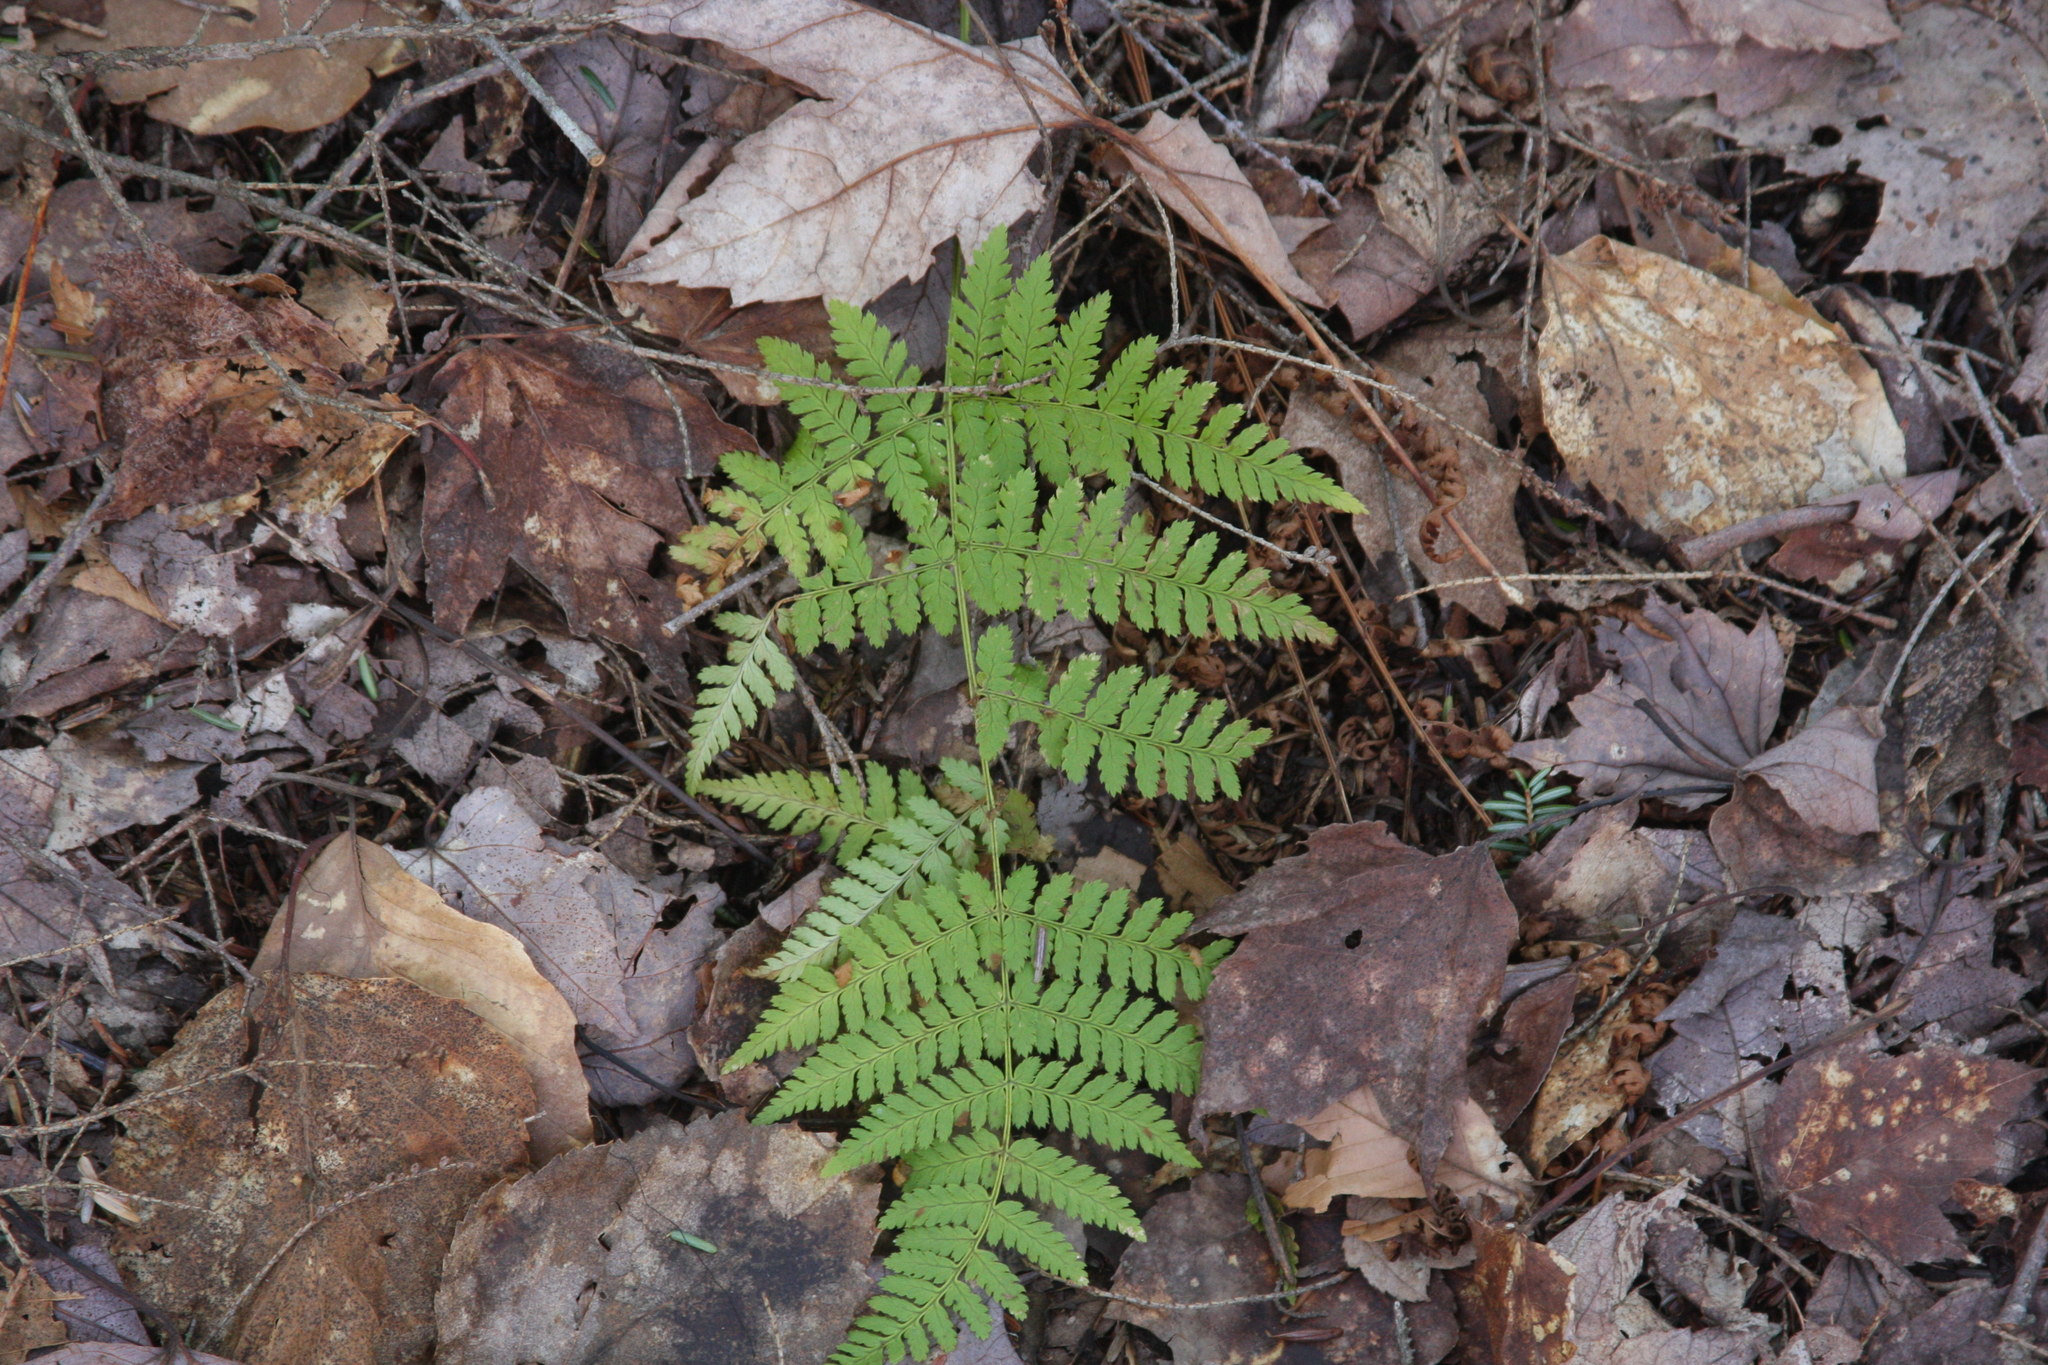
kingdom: Plantae
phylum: Tracheophyta
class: Polypodiopsida
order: Polypodiales
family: Dryopteridaceae
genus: Dryopteris
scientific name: Dryopteris intermedia
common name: Evergreen wood fern
